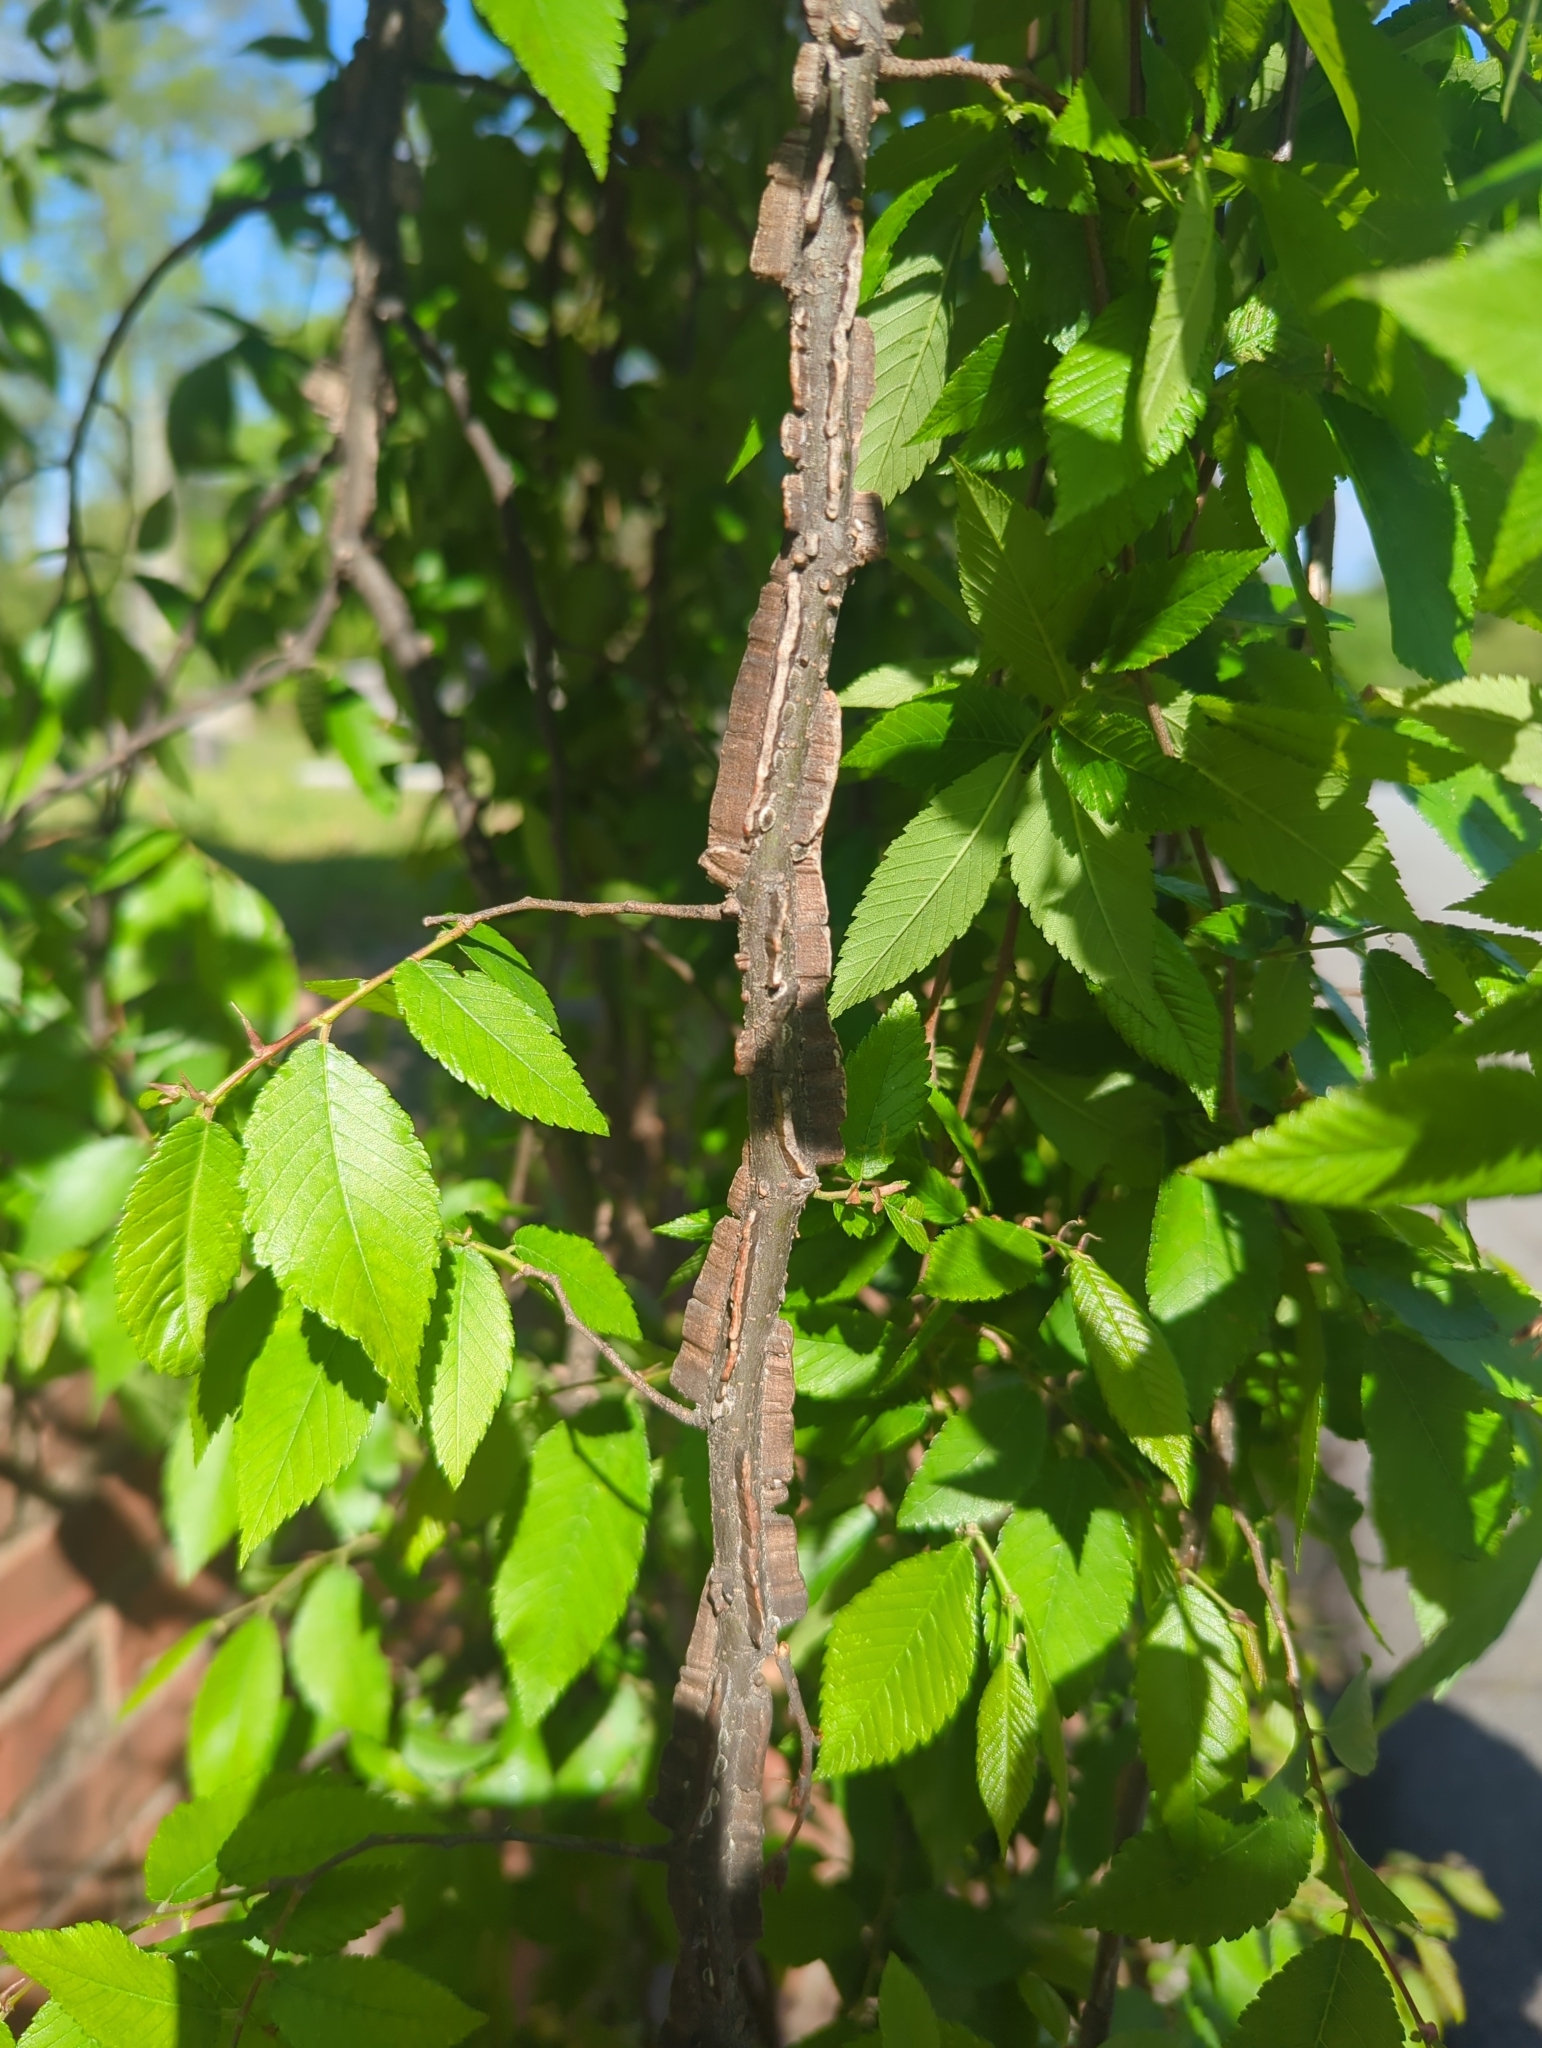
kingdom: Plantae
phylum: Tracheophyta
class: Magnoliopsida
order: Rosales
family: Ulmaceae
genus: Ulmus
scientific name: Ulmus alata
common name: Winged elm
